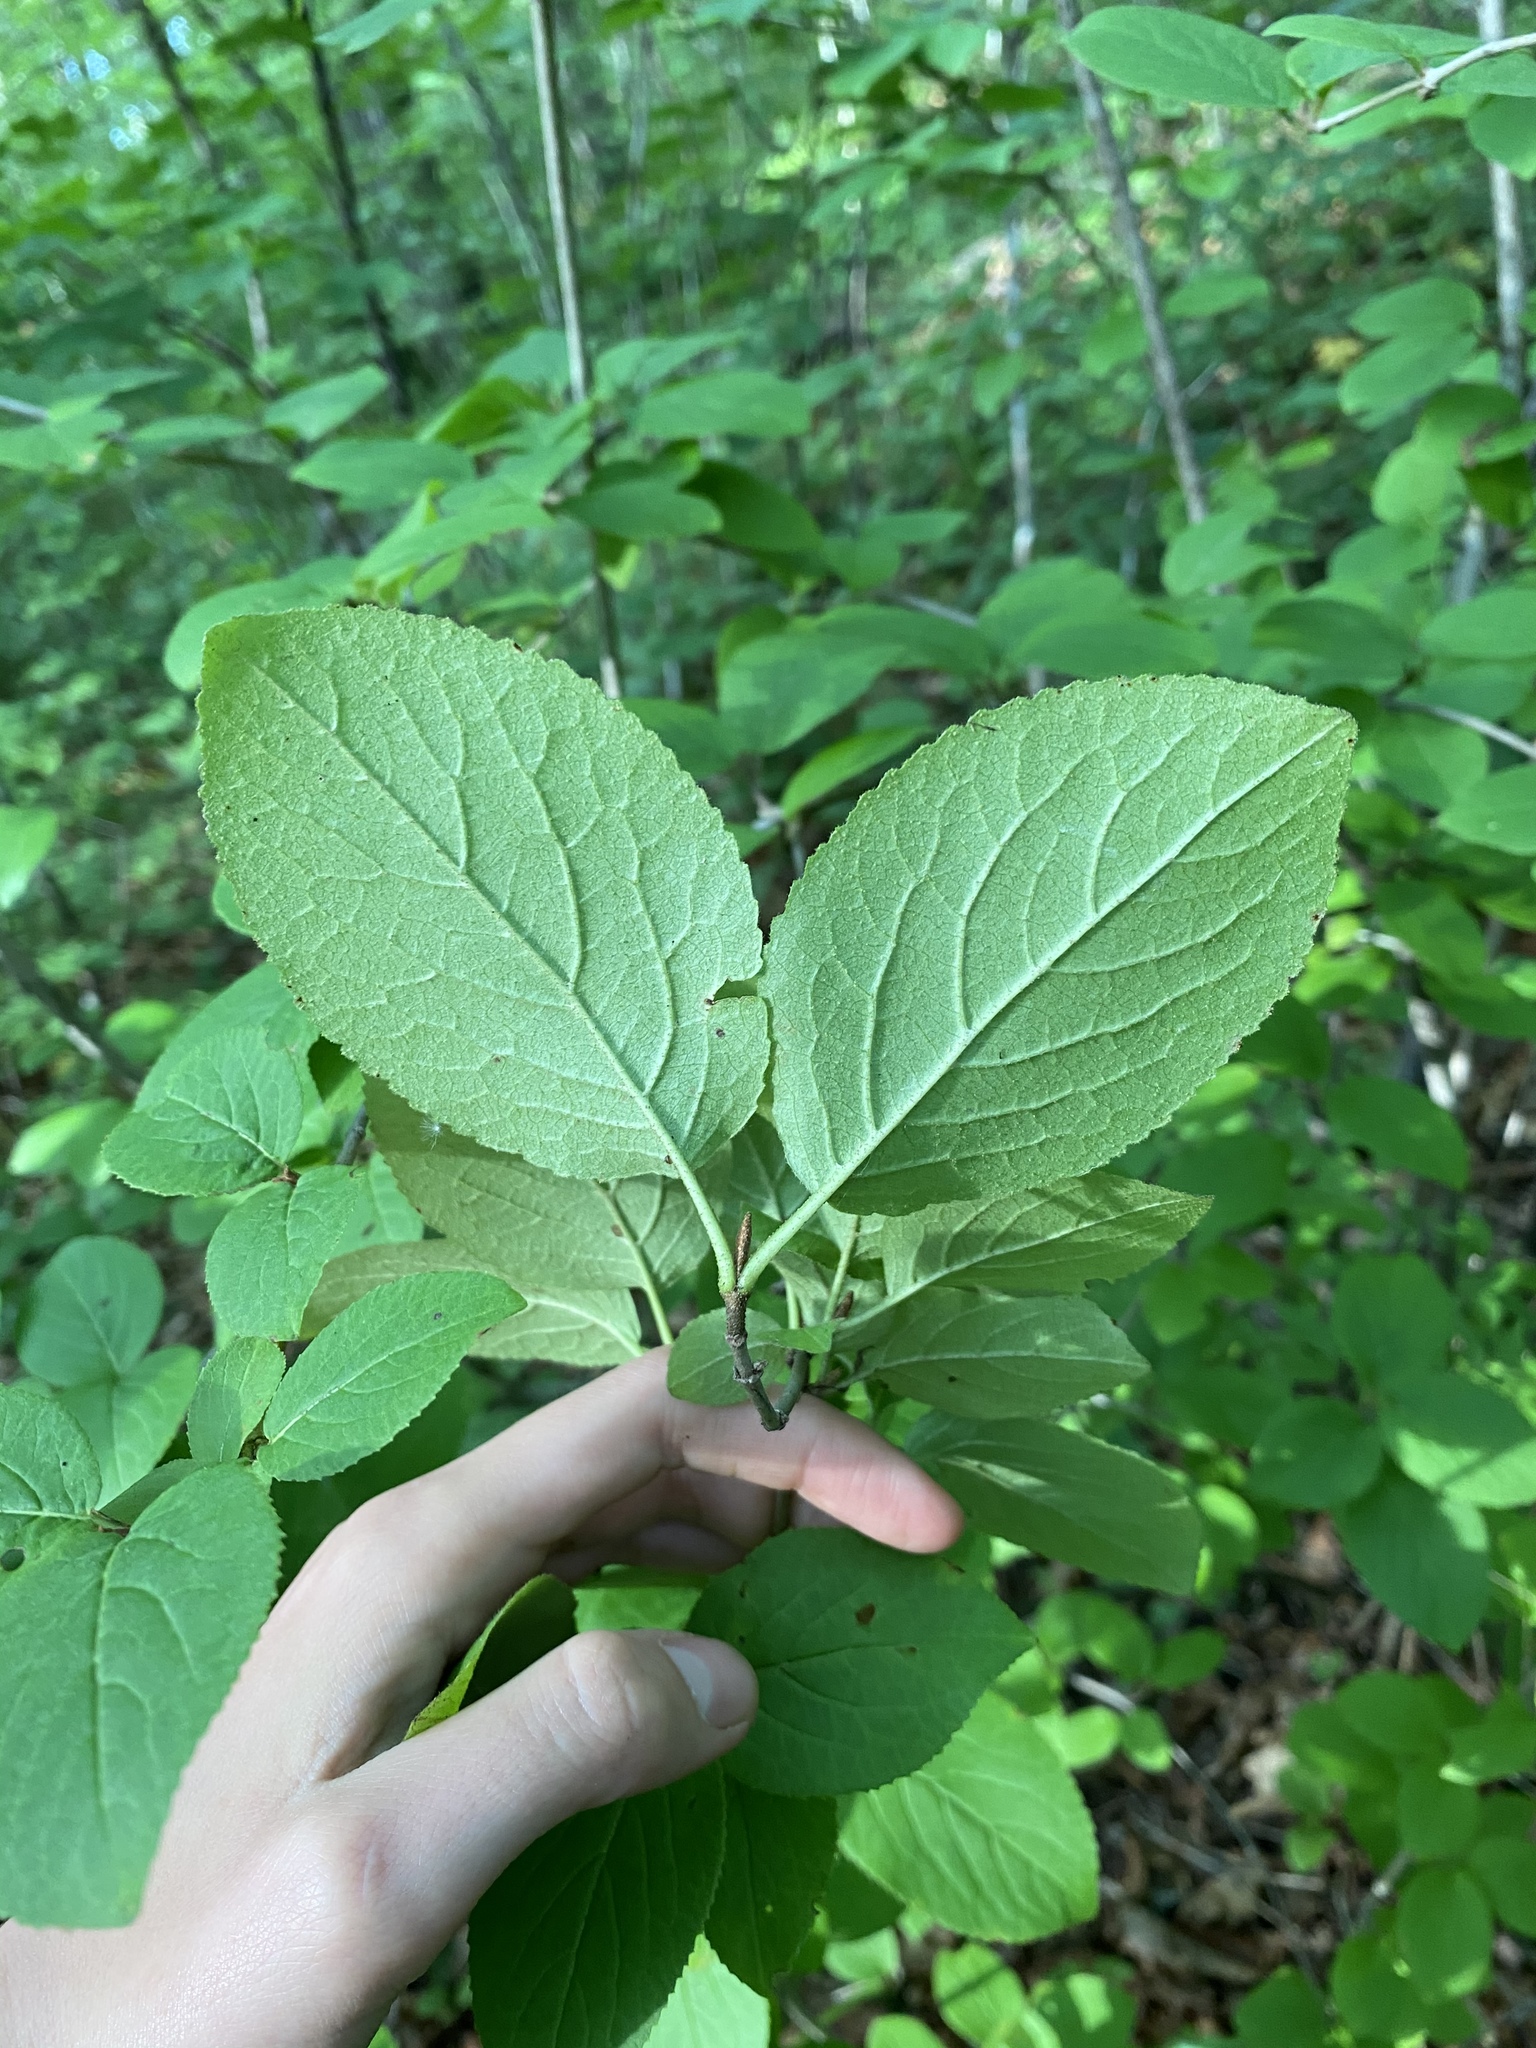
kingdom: Plantae
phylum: Tracheophyta
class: Magnoliopsida
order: Dipsacales
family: Viburnaceae
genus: Viburnum
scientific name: Viburnum burejaeticum
